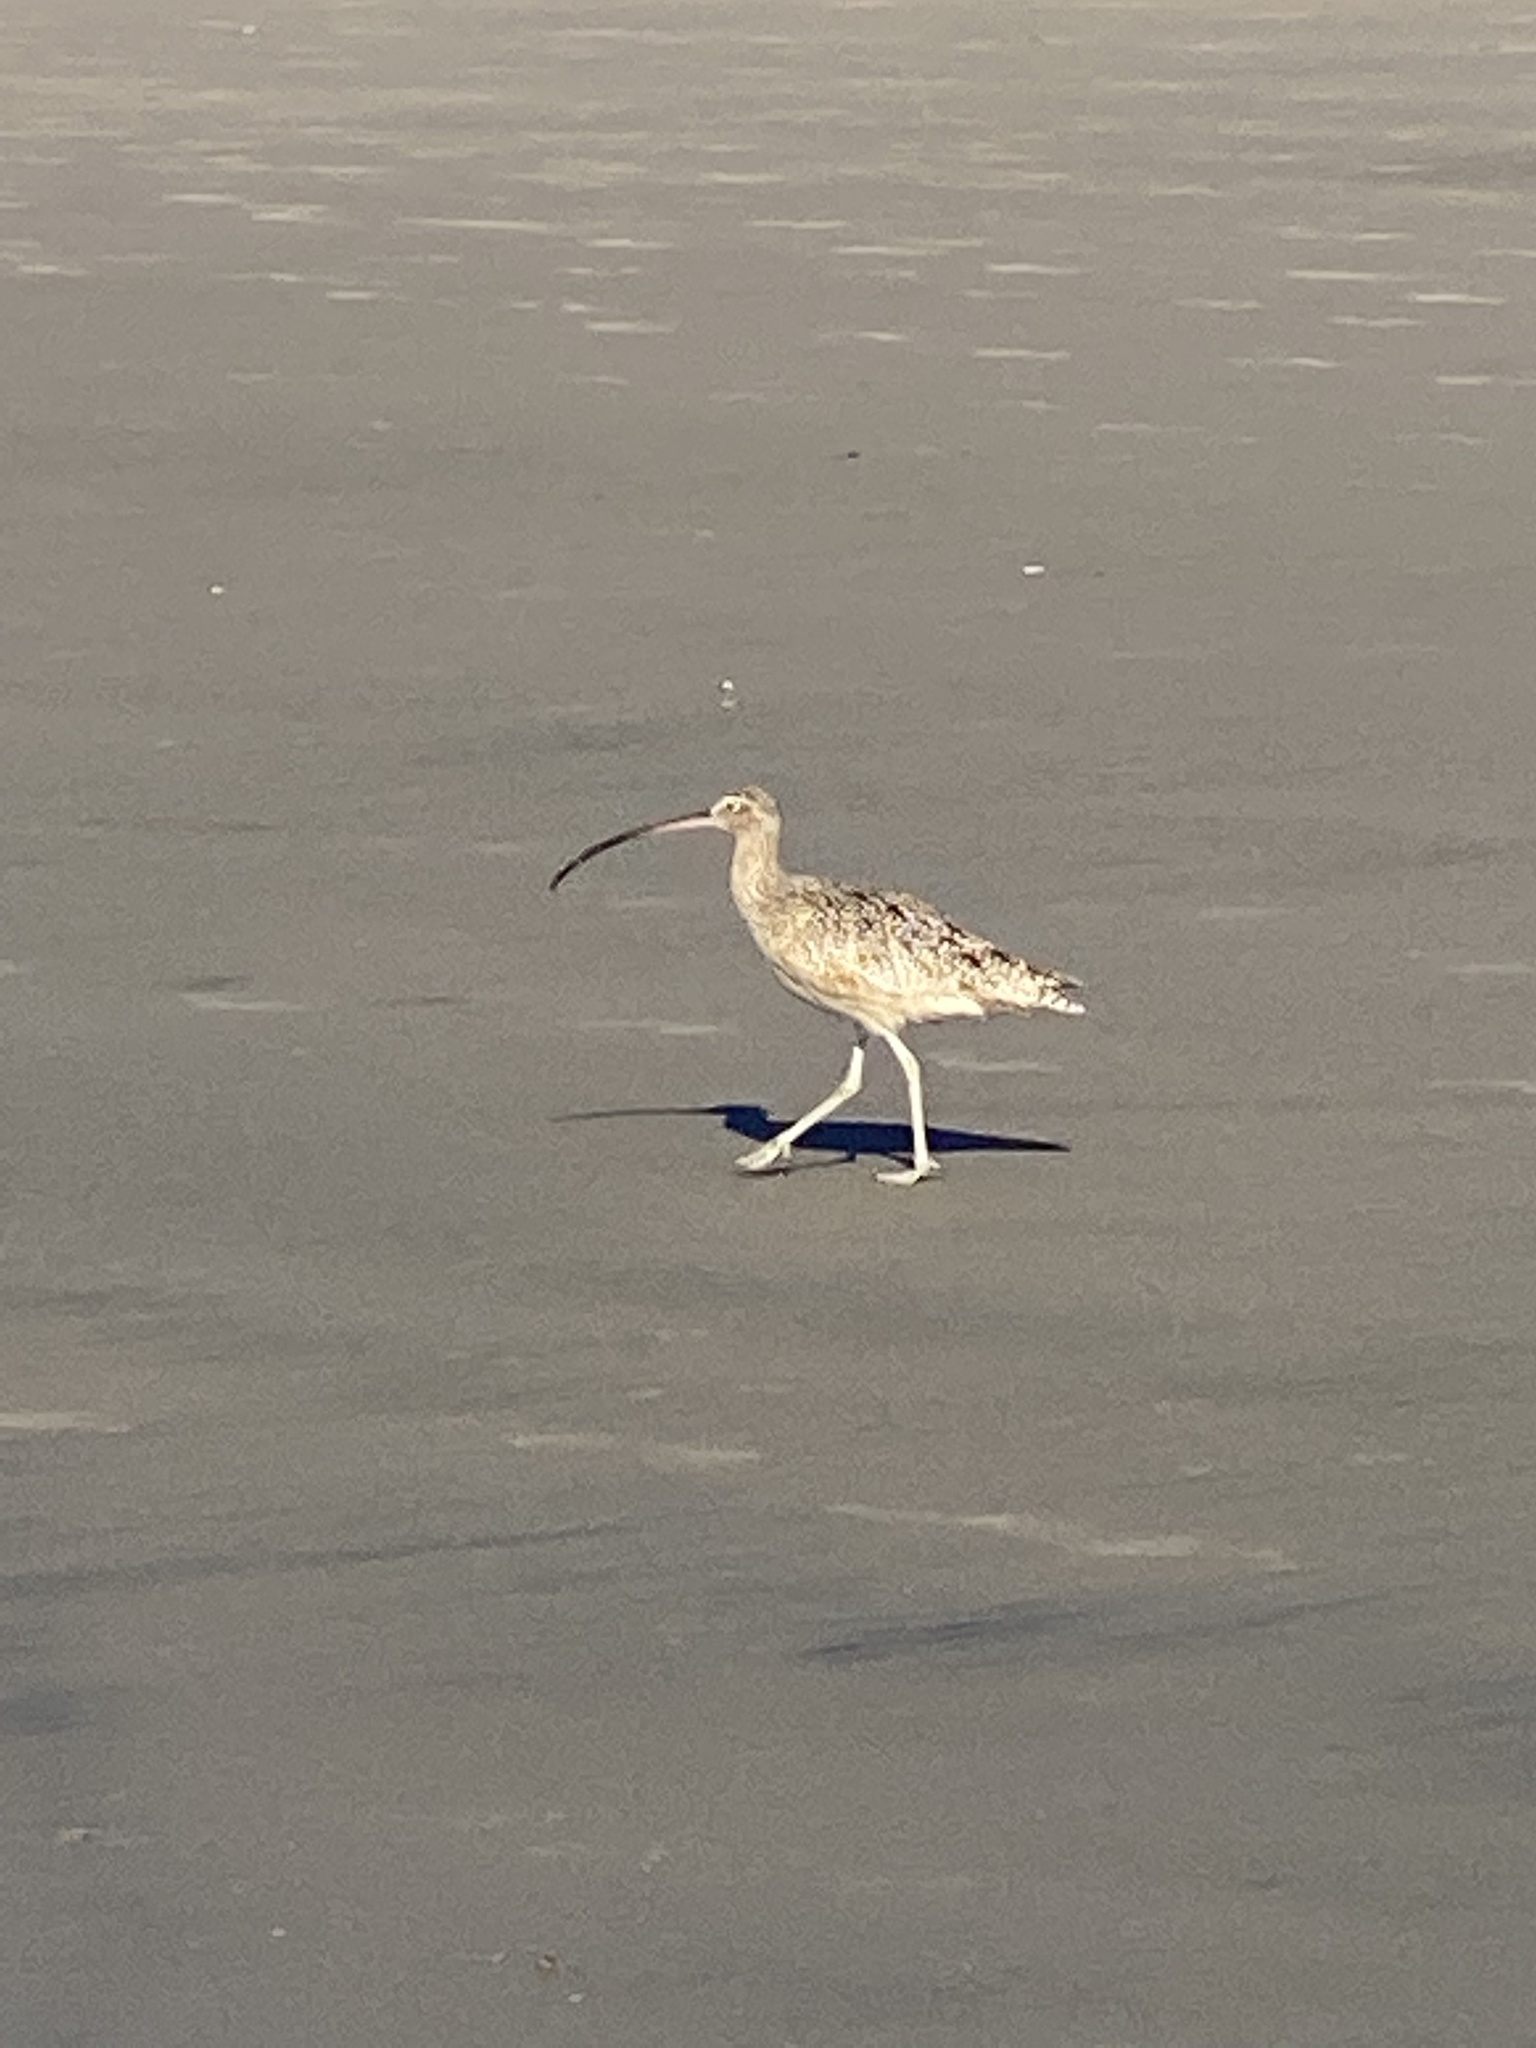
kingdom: Animalia
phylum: Chordata
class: Aves
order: Charadriiformes
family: Scolopacidae
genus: Numenius
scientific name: Numenius americanus
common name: Long-billed curlew
